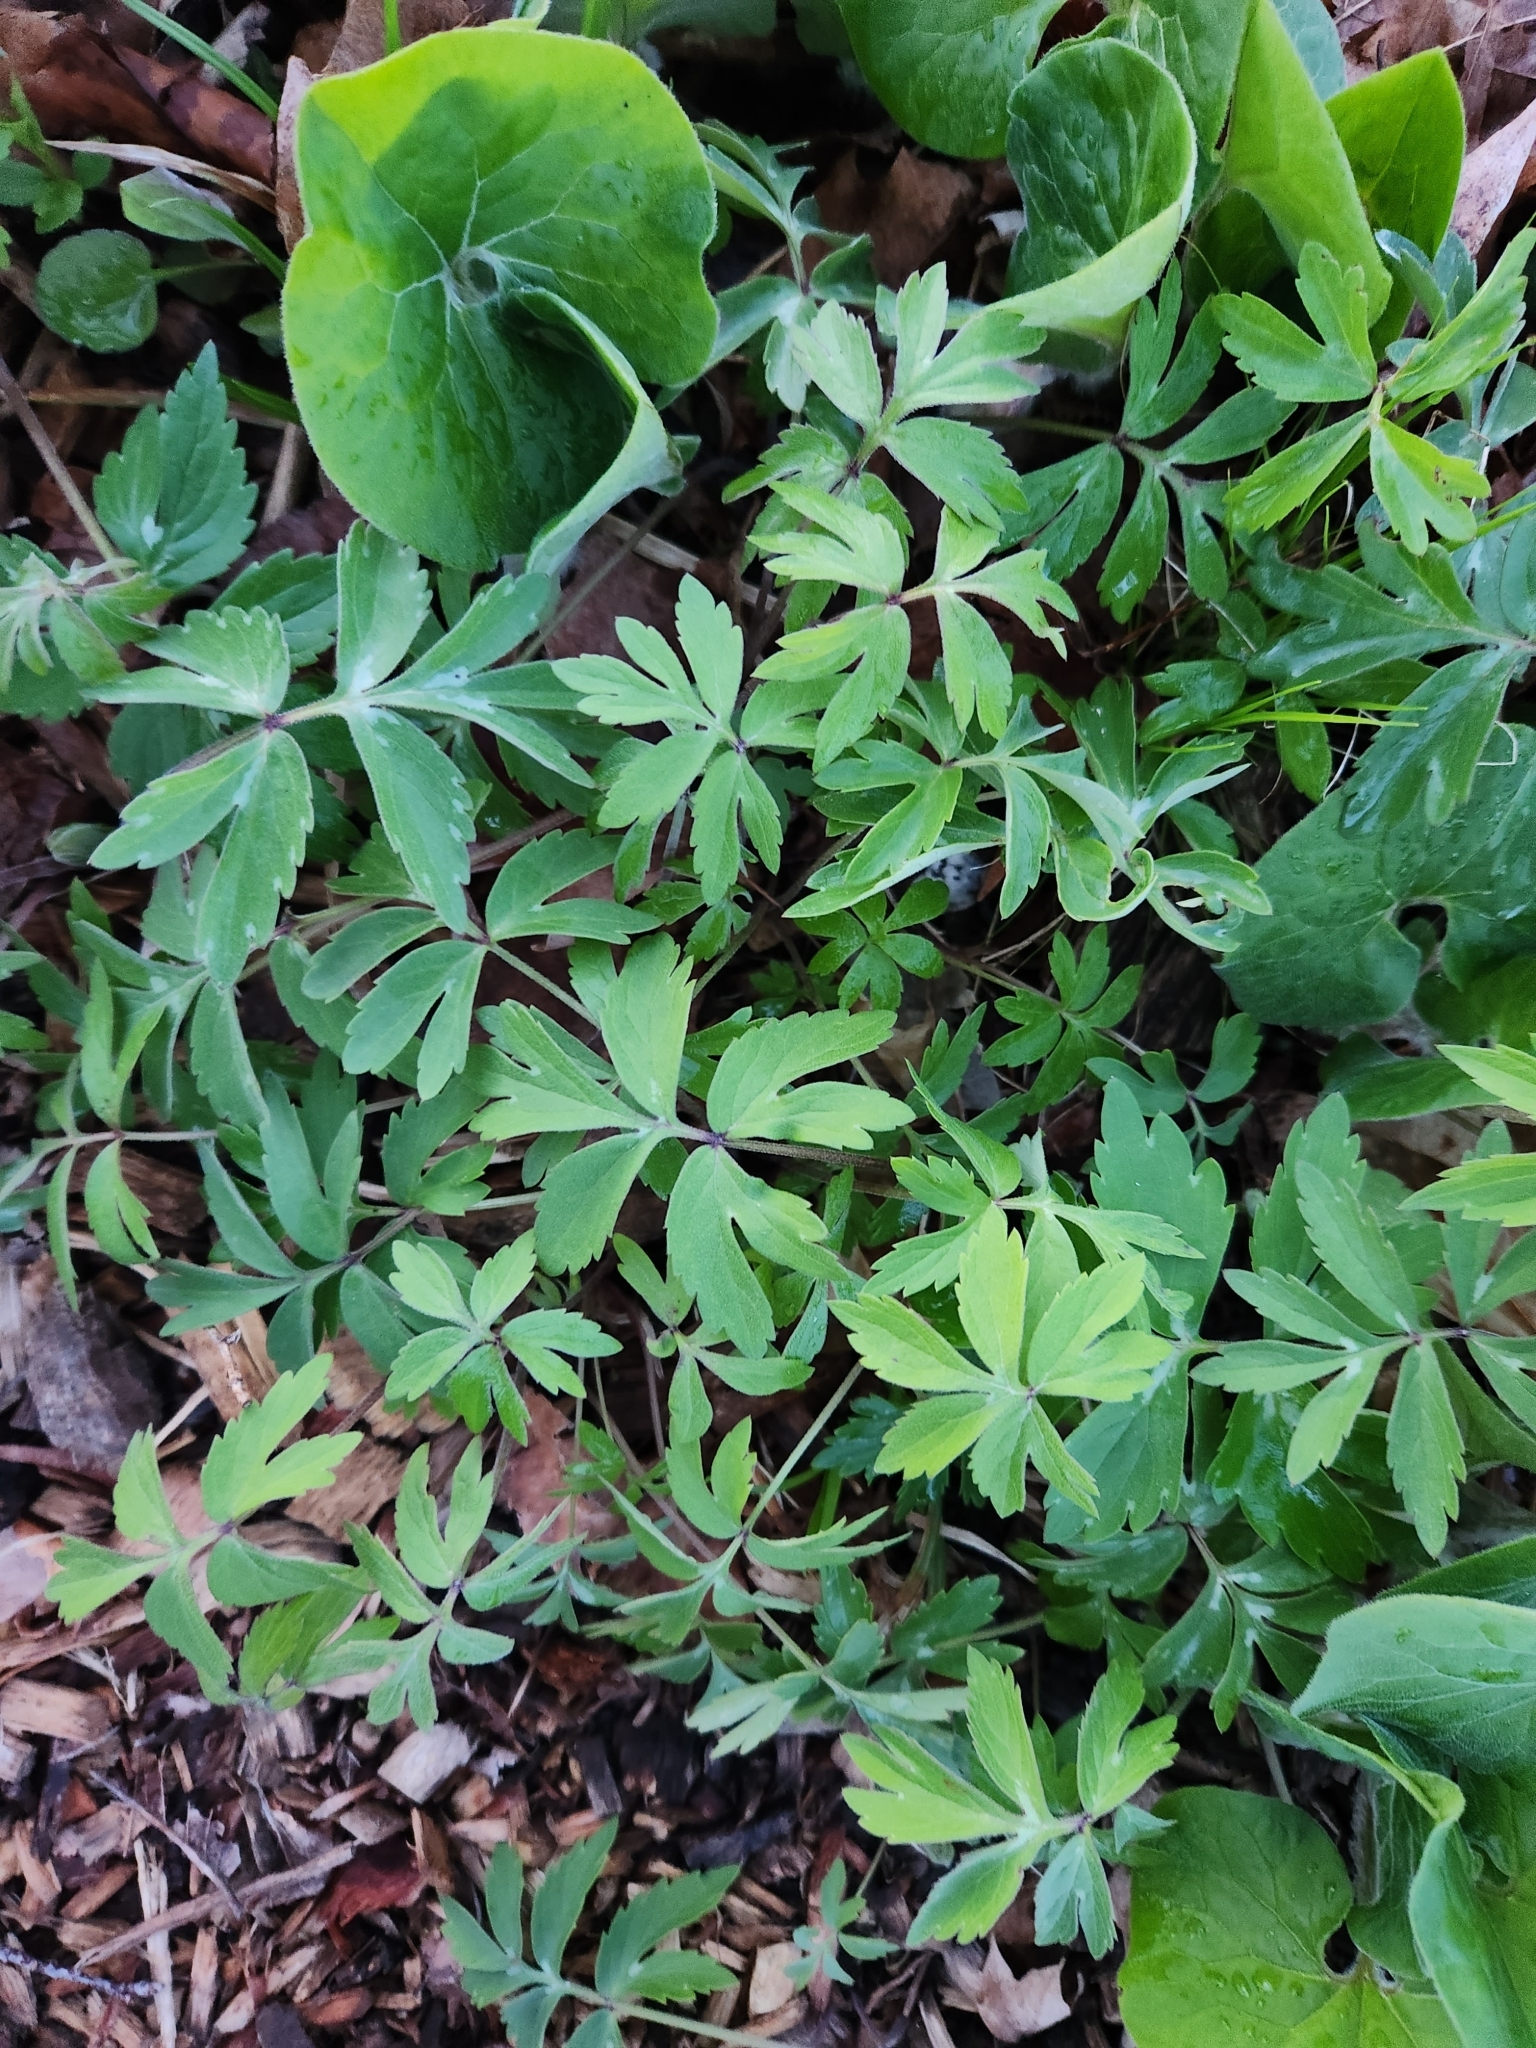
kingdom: Plantae
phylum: Tracheophyta
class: Magnoliopsida
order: Boraginales
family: Hydrophyllaceae
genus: Hydrophyllum
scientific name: Hydrophyllum virginianum
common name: Virginia waterleaf
